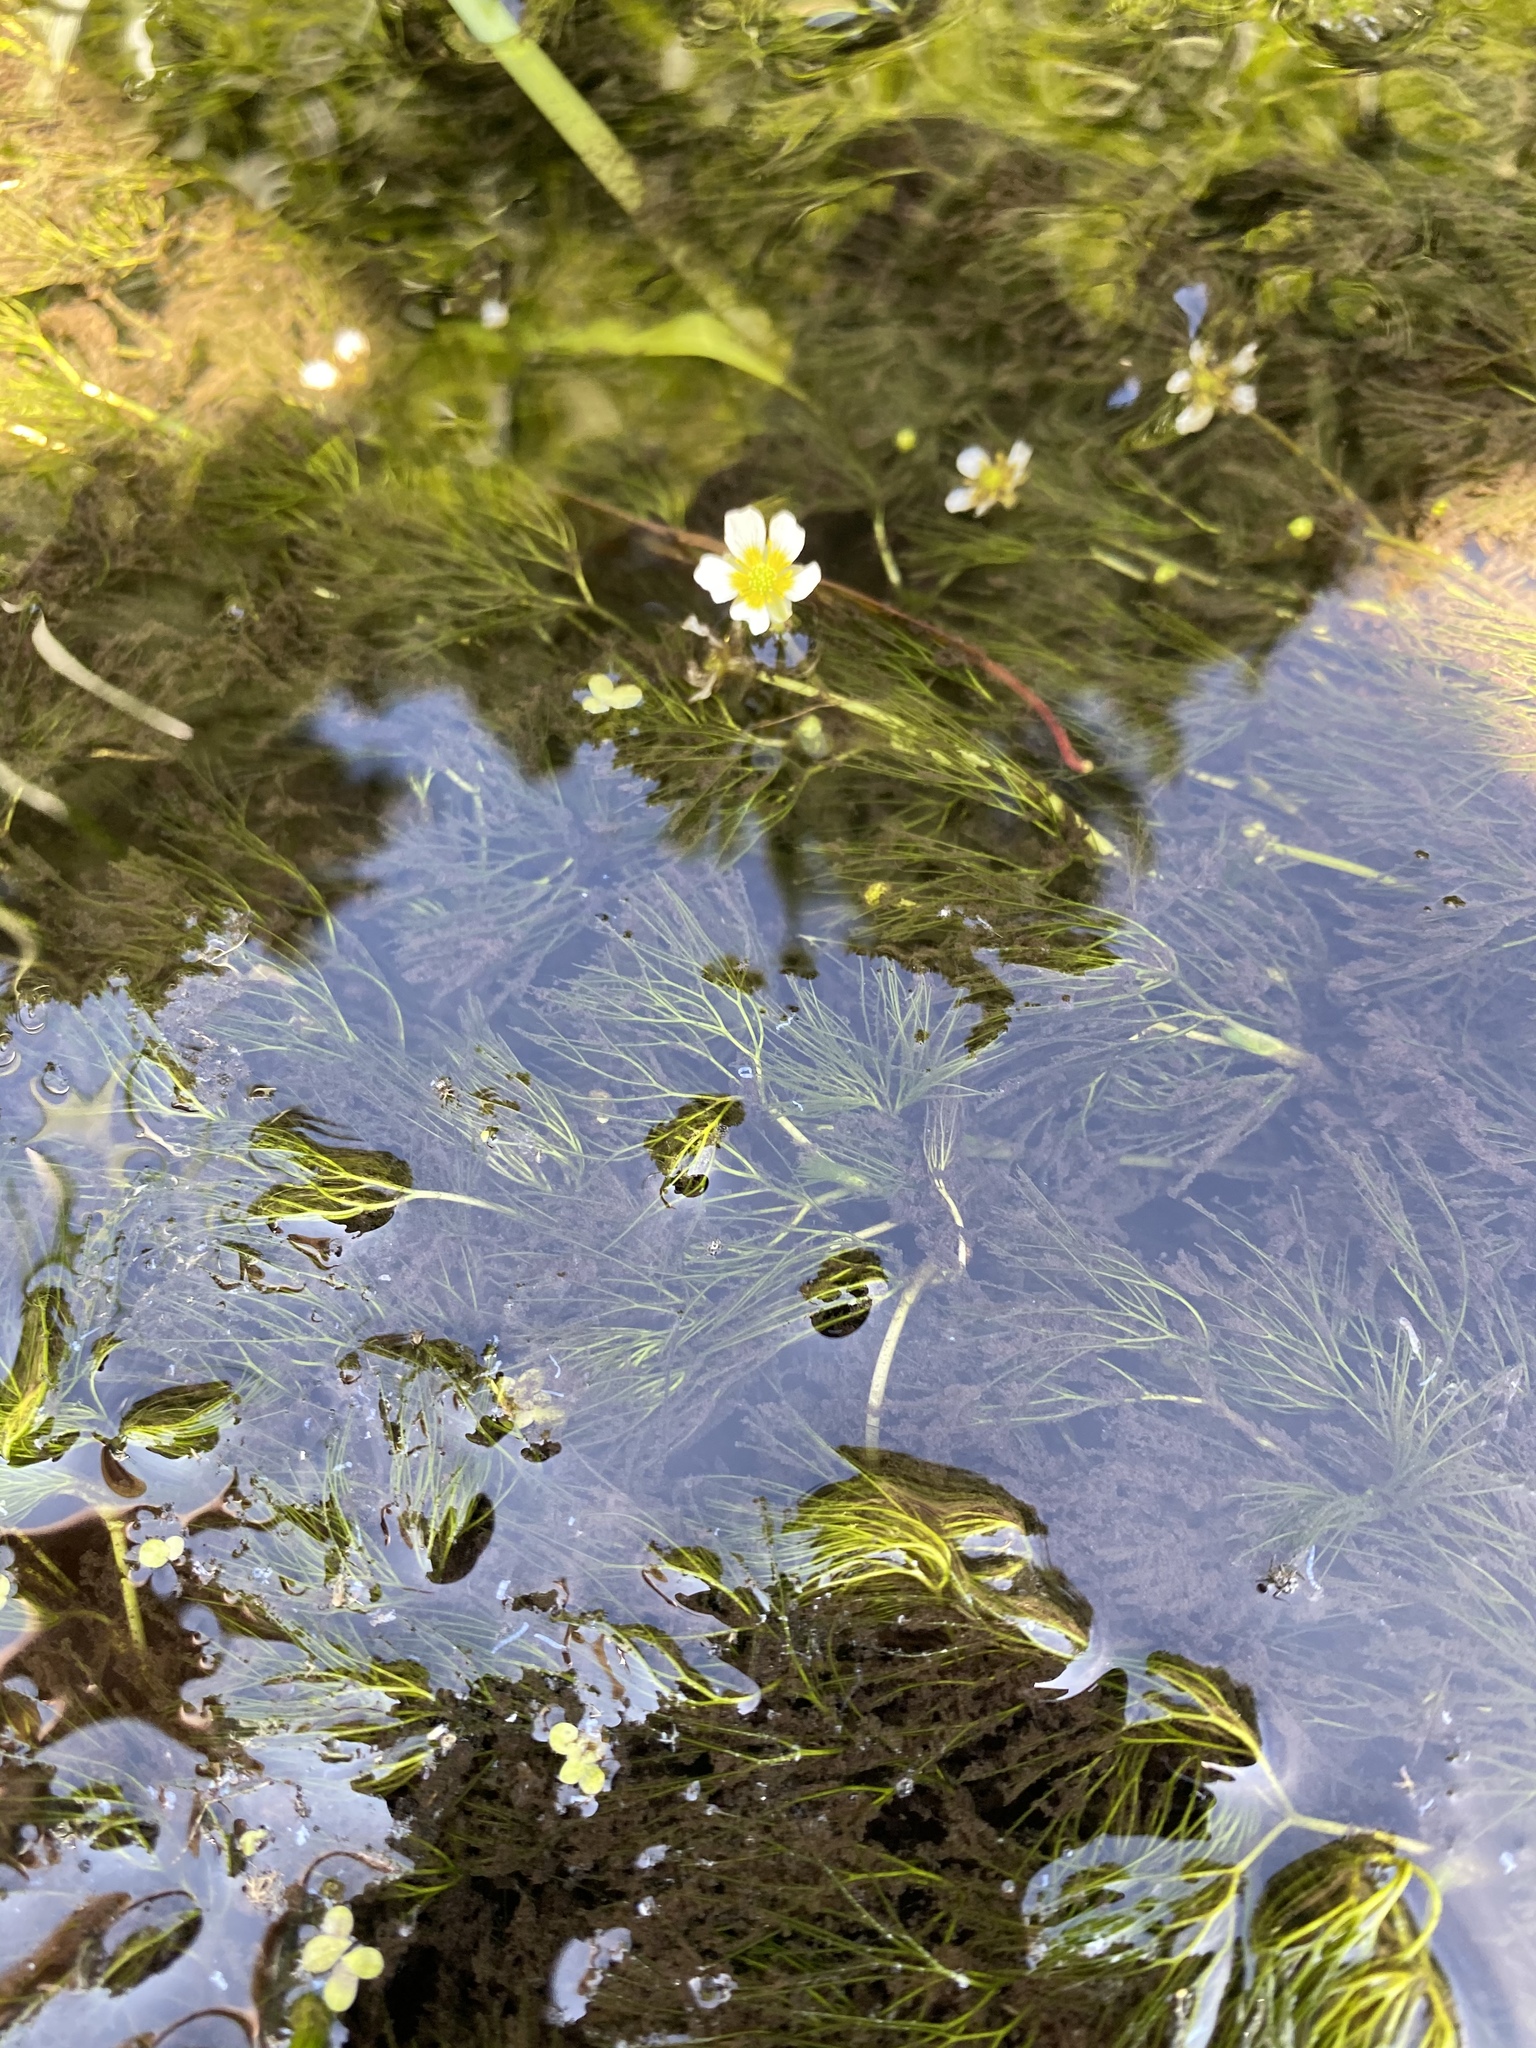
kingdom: Plantae
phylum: Tracheophyta
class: Magnoliopsida
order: Ranunculales
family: Ranunculaceae
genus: Ranunculus
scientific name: Ranunculus aquatilis
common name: Common water-crowfoot
